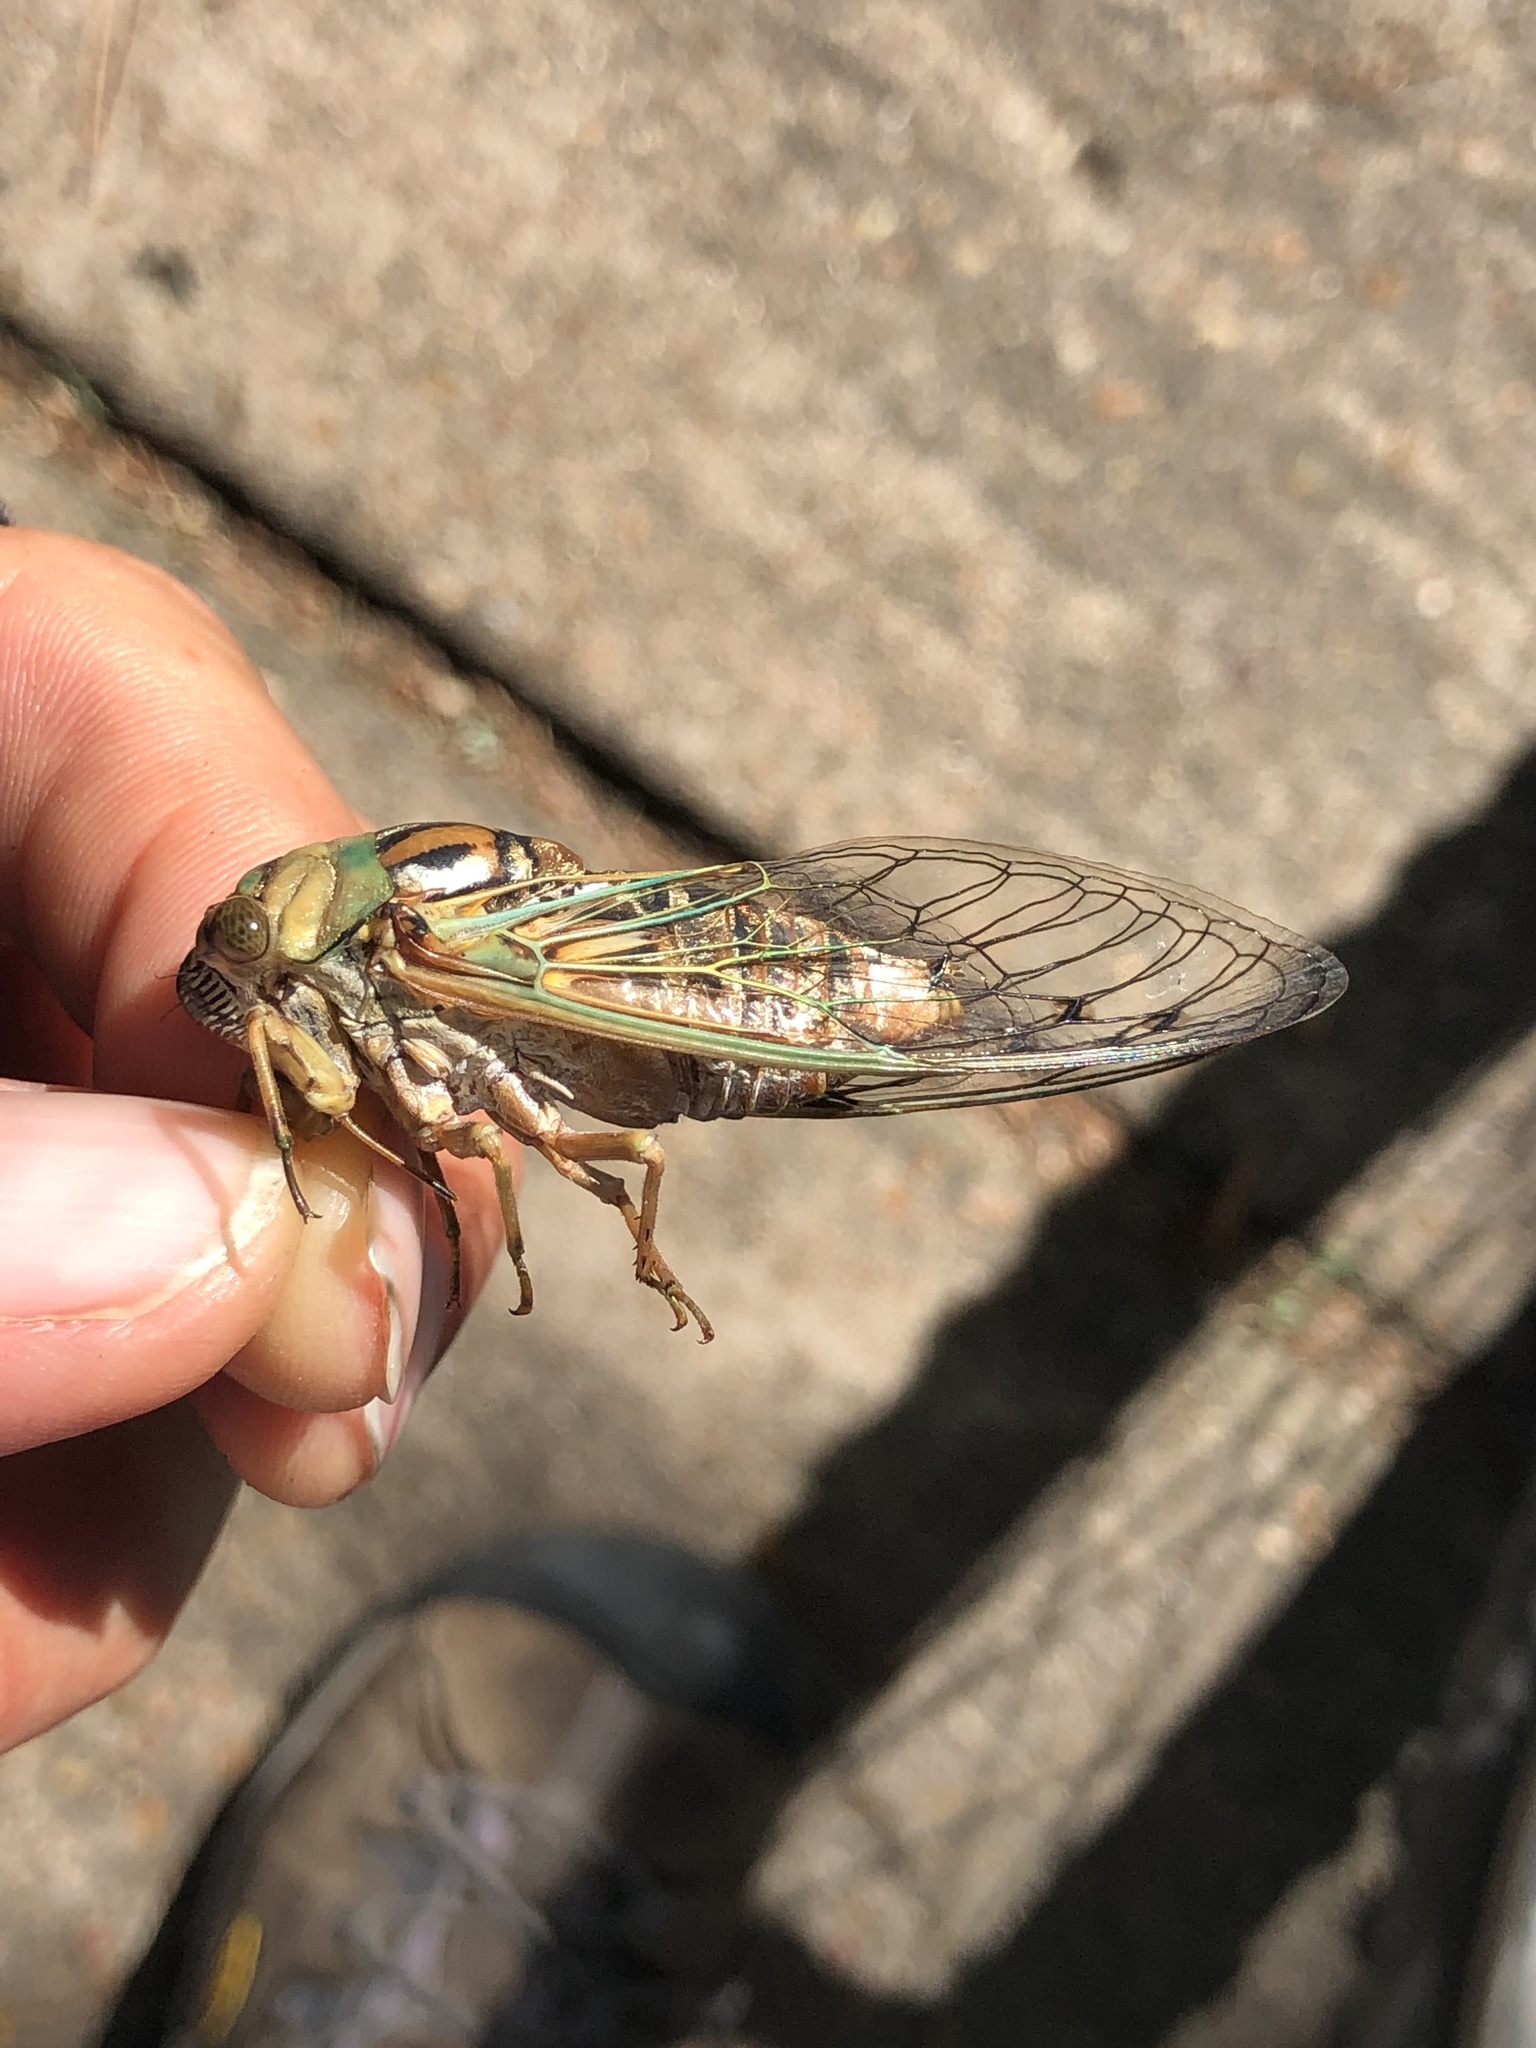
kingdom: Animalia
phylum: Arthropoda
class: Insecta
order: Hemiptera
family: Cicadidae
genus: Megatibicen
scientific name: Megatibicen resh
